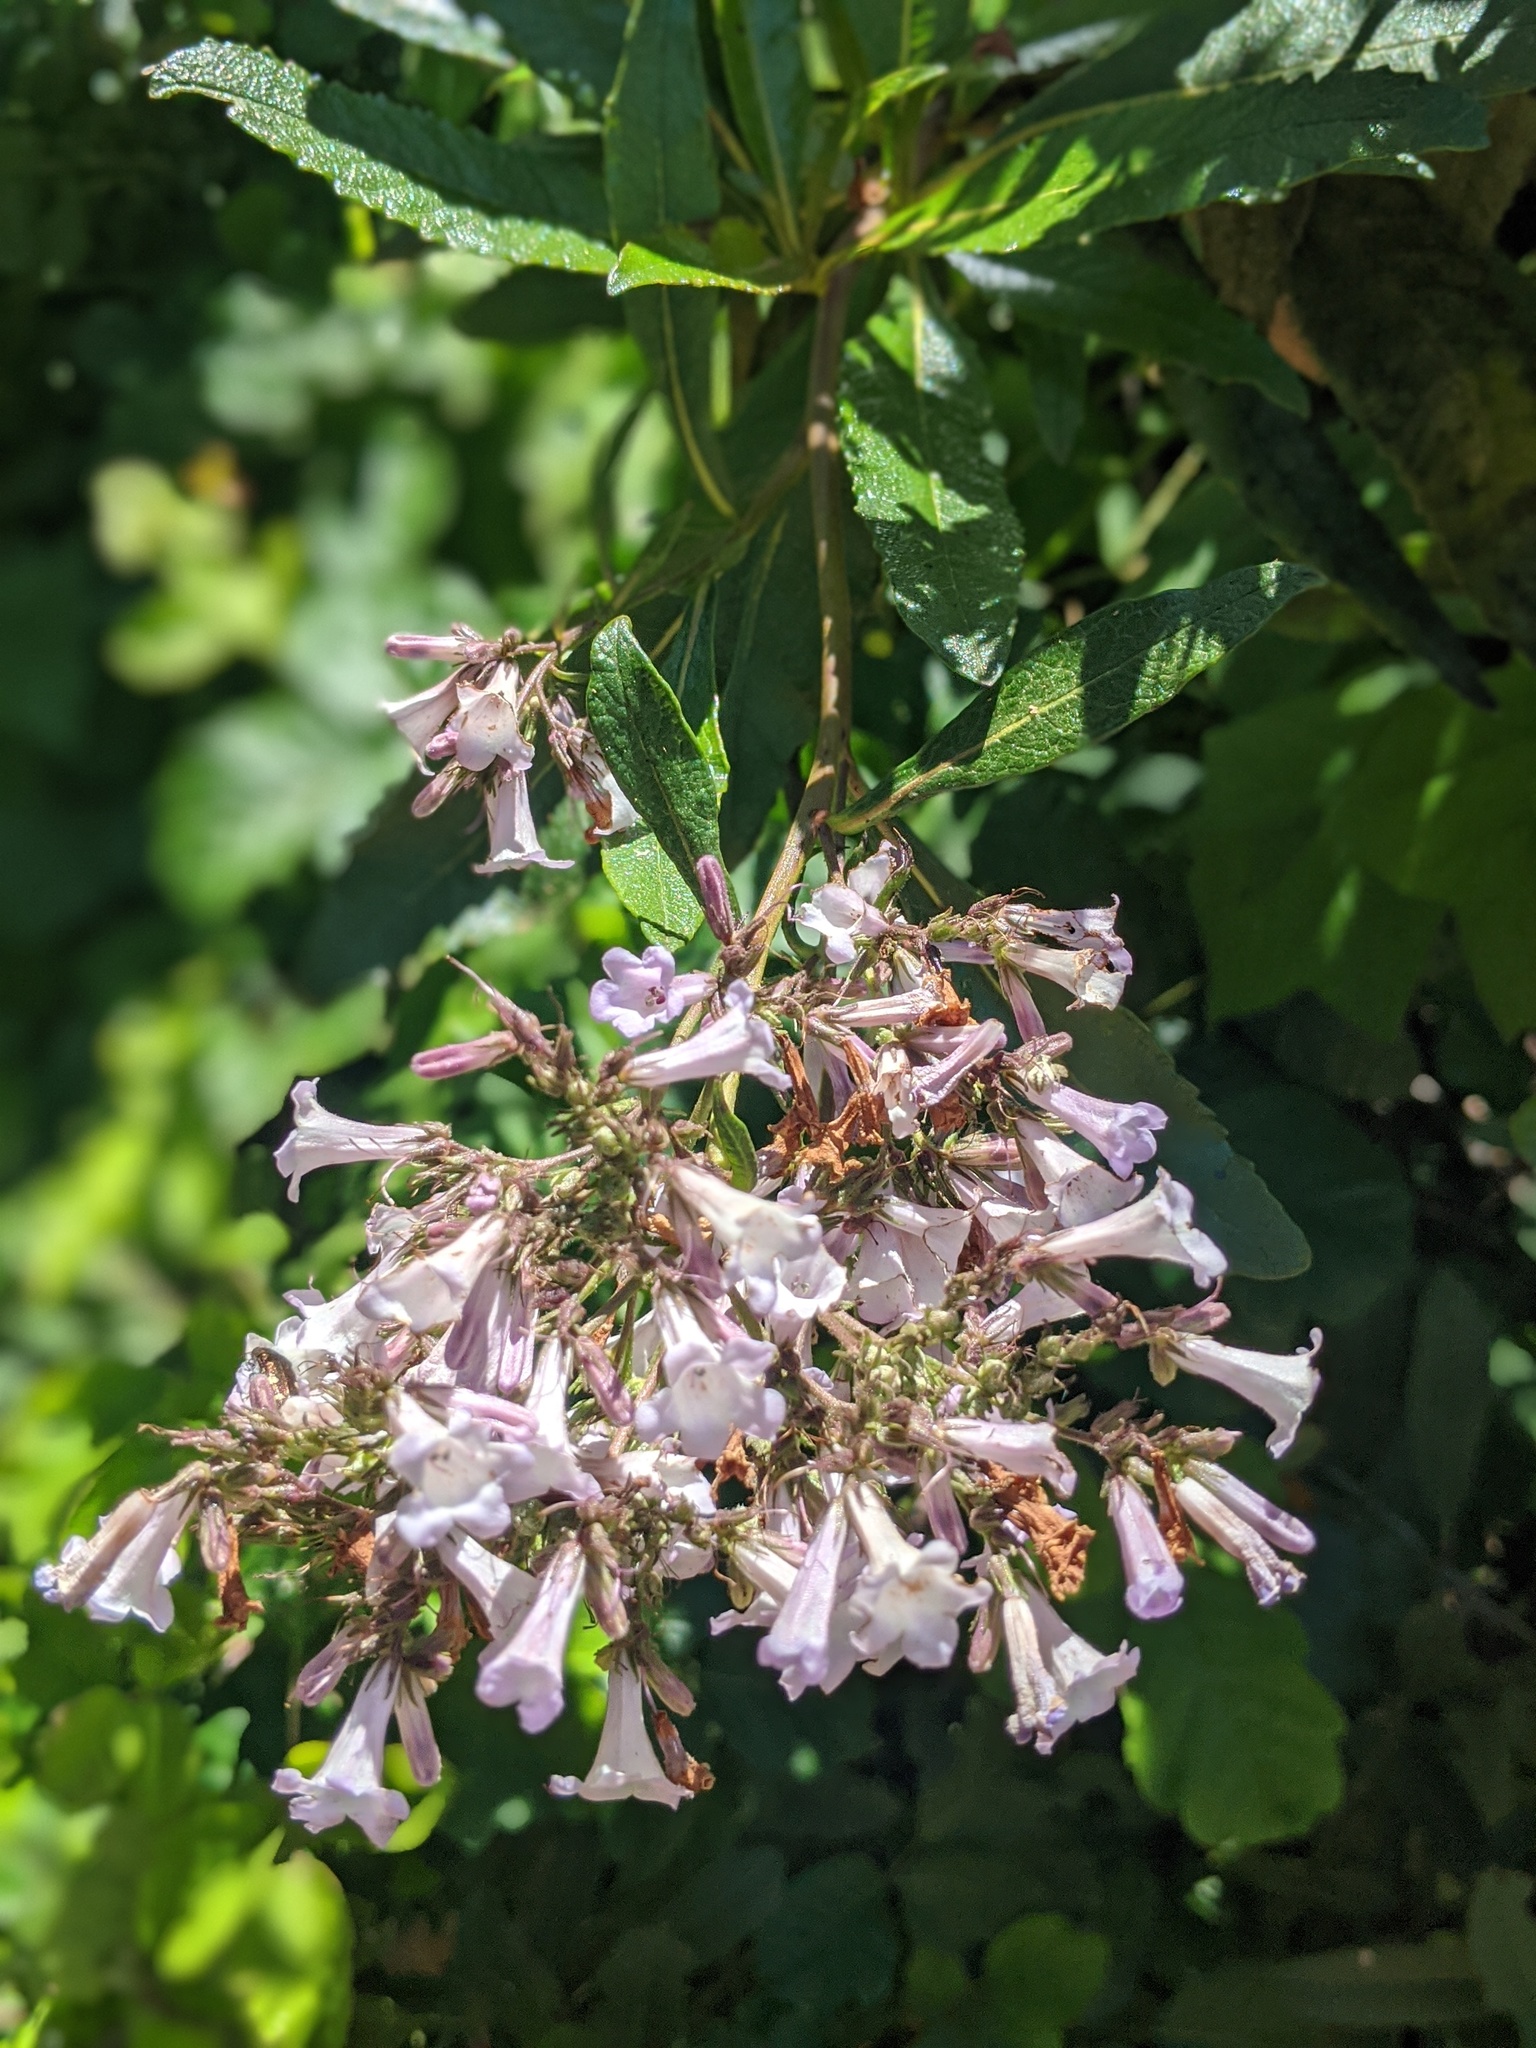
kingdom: Plantae
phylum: Tracheophyta
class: Magnoliopsida
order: Boraginales
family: Namaceae
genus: Eriodictyon
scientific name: Eriodictyon californicum
